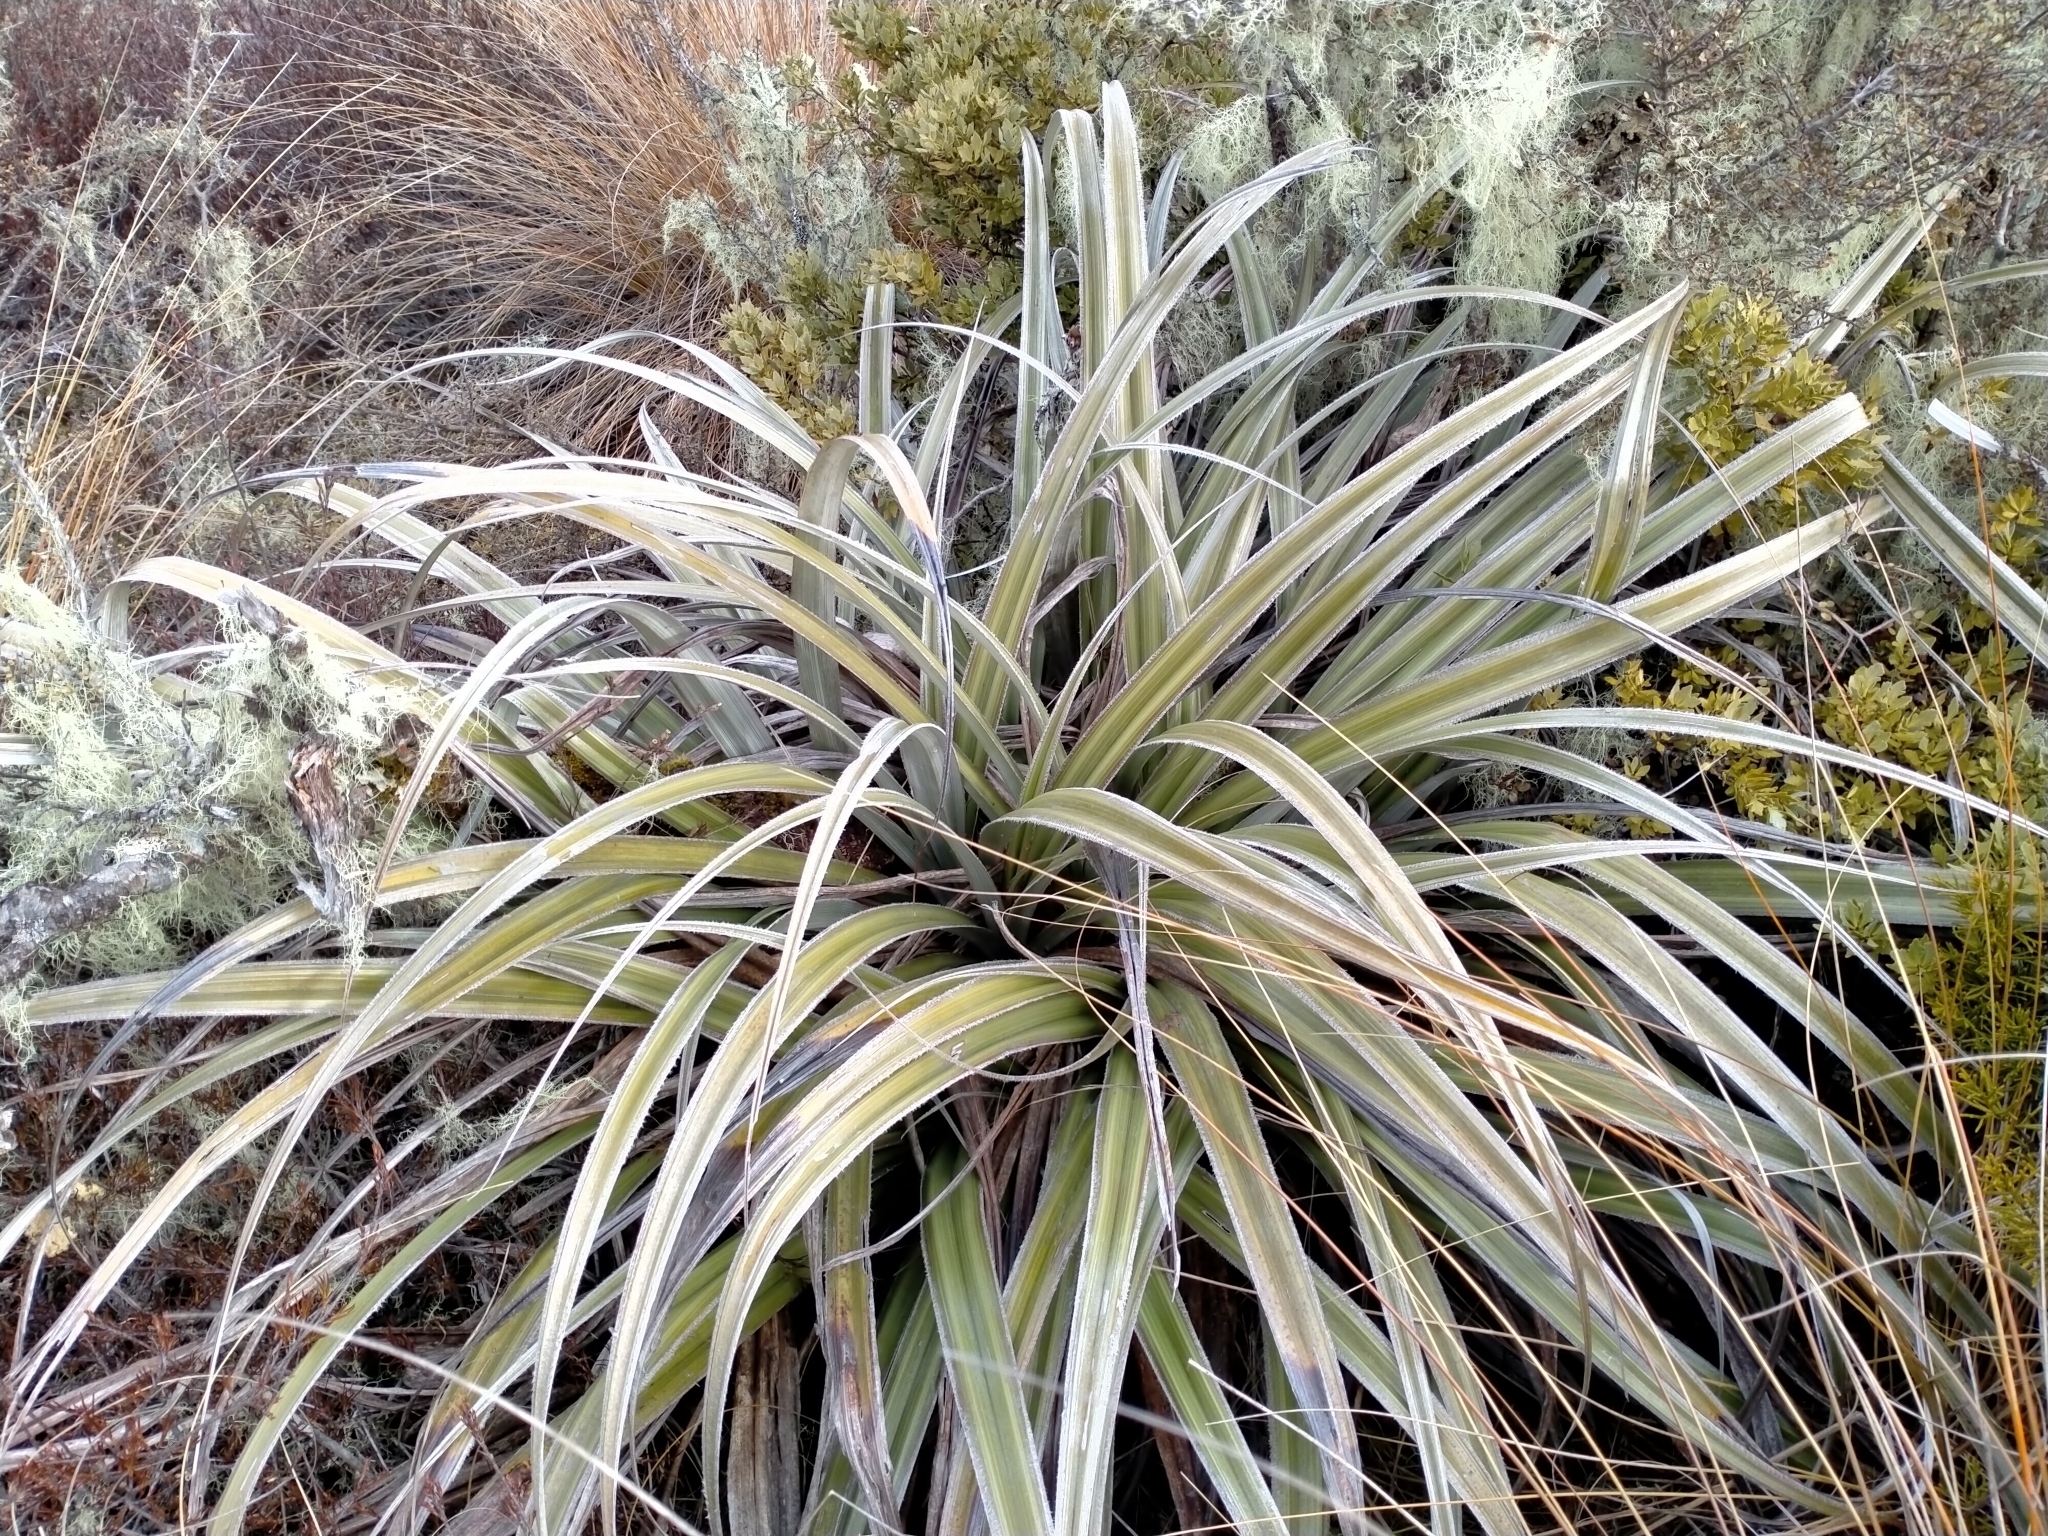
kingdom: Plantae
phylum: Tracheophyta
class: Liliopsida
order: Asparagales
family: Asteliaceae
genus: Astelia
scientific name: Astelia nervosa
